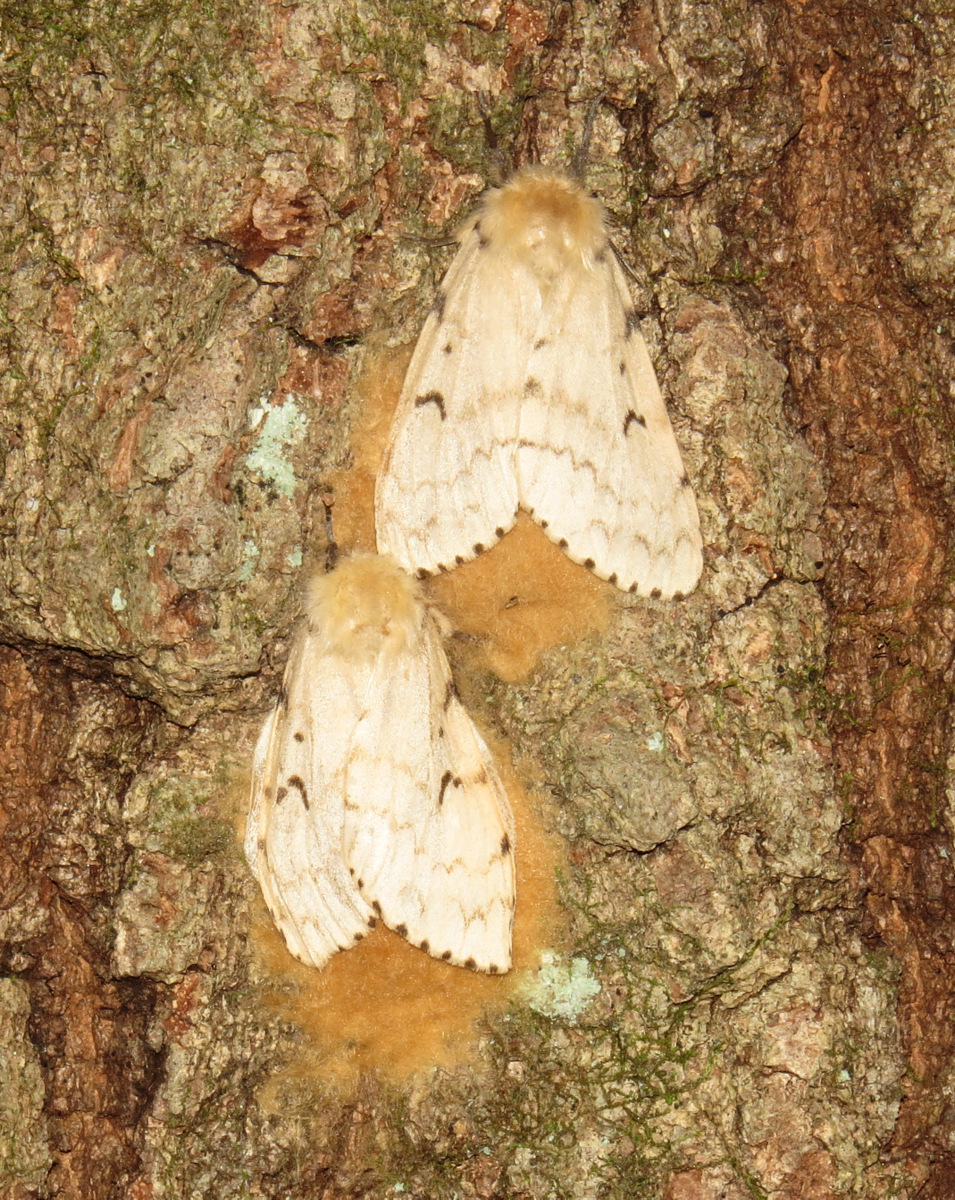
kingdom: Animalia
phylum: Arthropoda
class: Insecta
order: Lepidoptera
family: Erebidae
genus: Lymantria
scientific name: Lymantria dispar
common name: Gypsy moth
